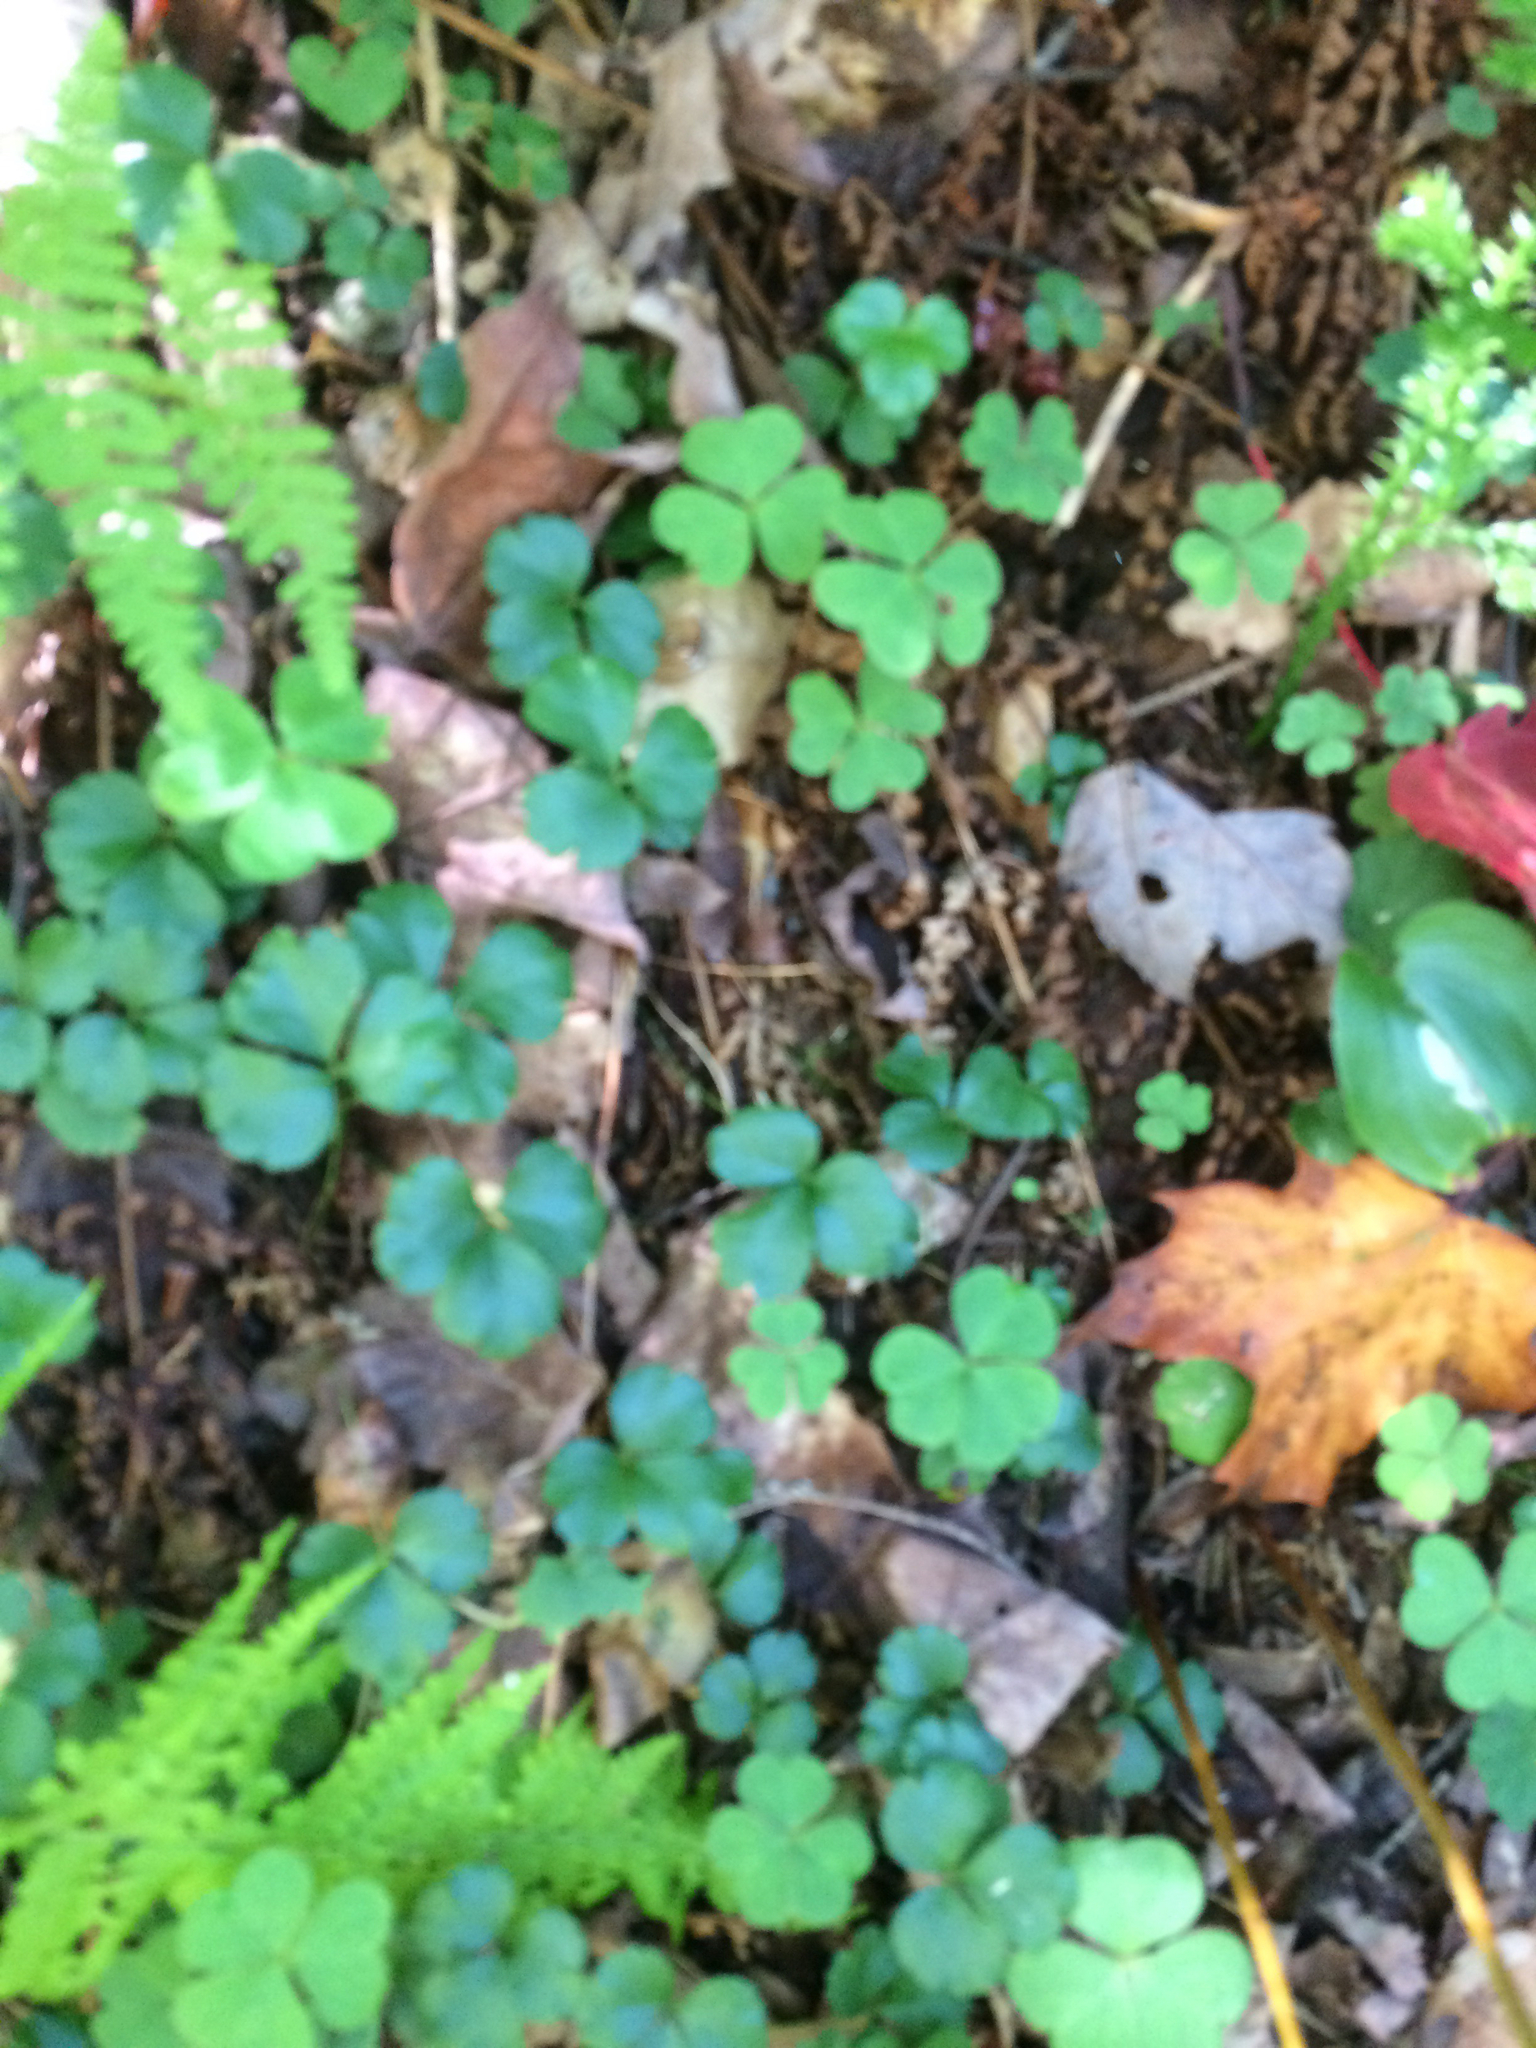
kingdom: Plantae
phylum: Tracheophyta
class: Magnoliopsida
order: Ranunculales
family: Ranunculaceae
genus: Coptis
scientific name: Coptis trifolia
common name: Canker-root
